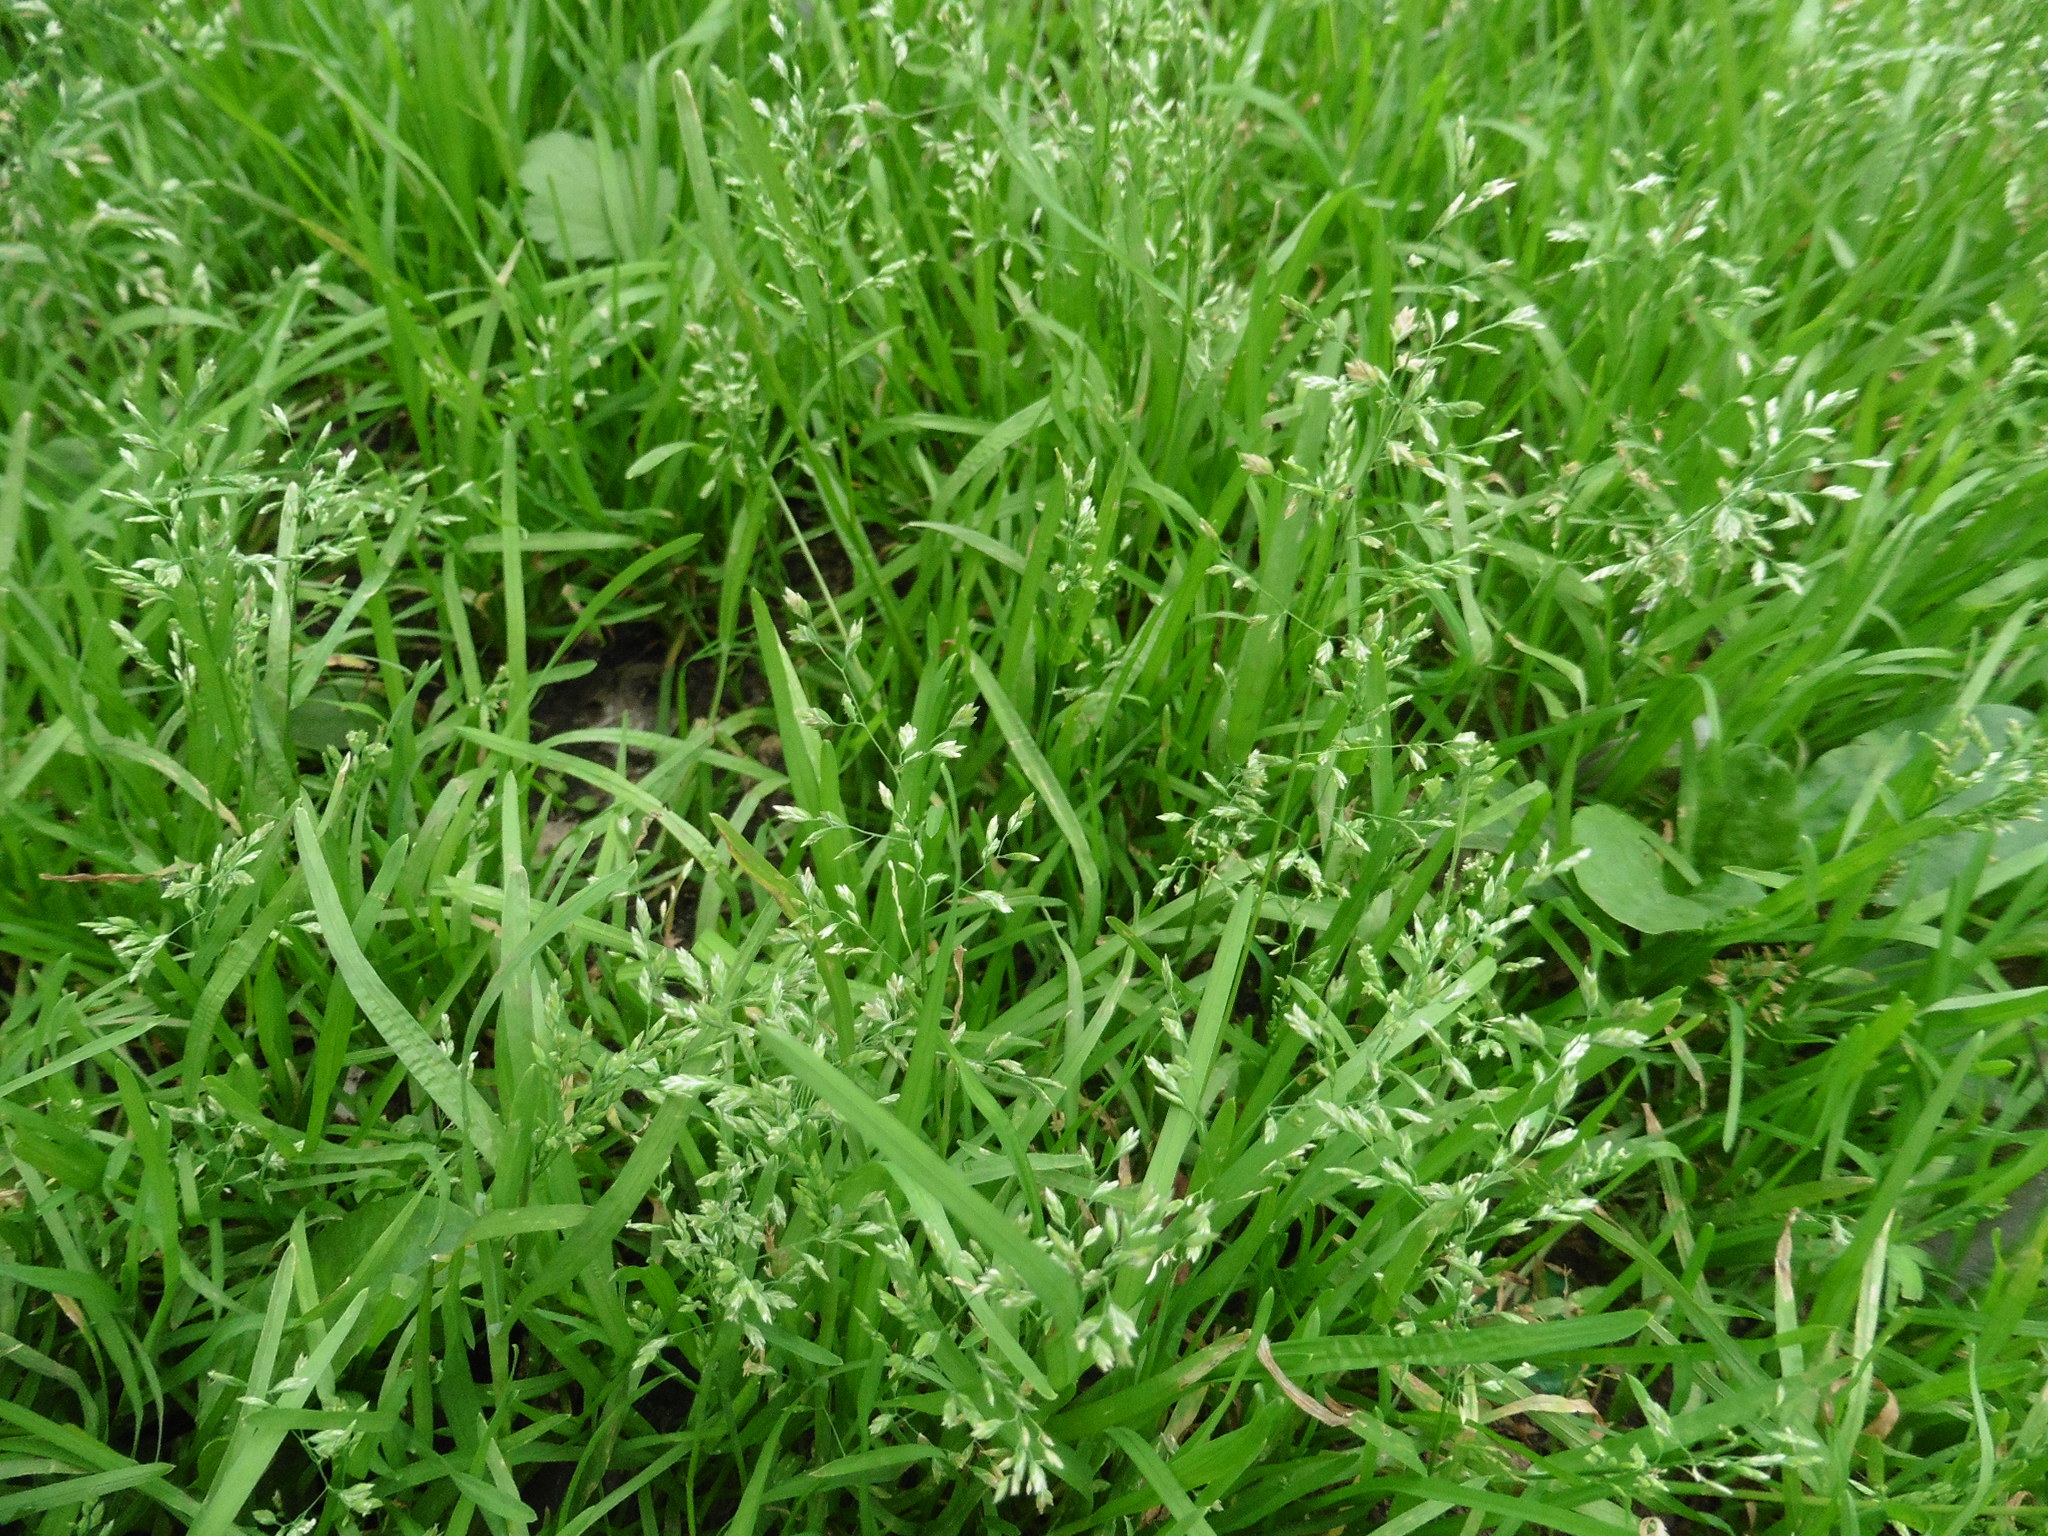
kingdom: Plantae
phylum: Tracheophyta
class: Liliopsida
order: Poales
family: Poaceae
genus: Poa
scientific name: Poa annua
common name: Annual bluegrass
